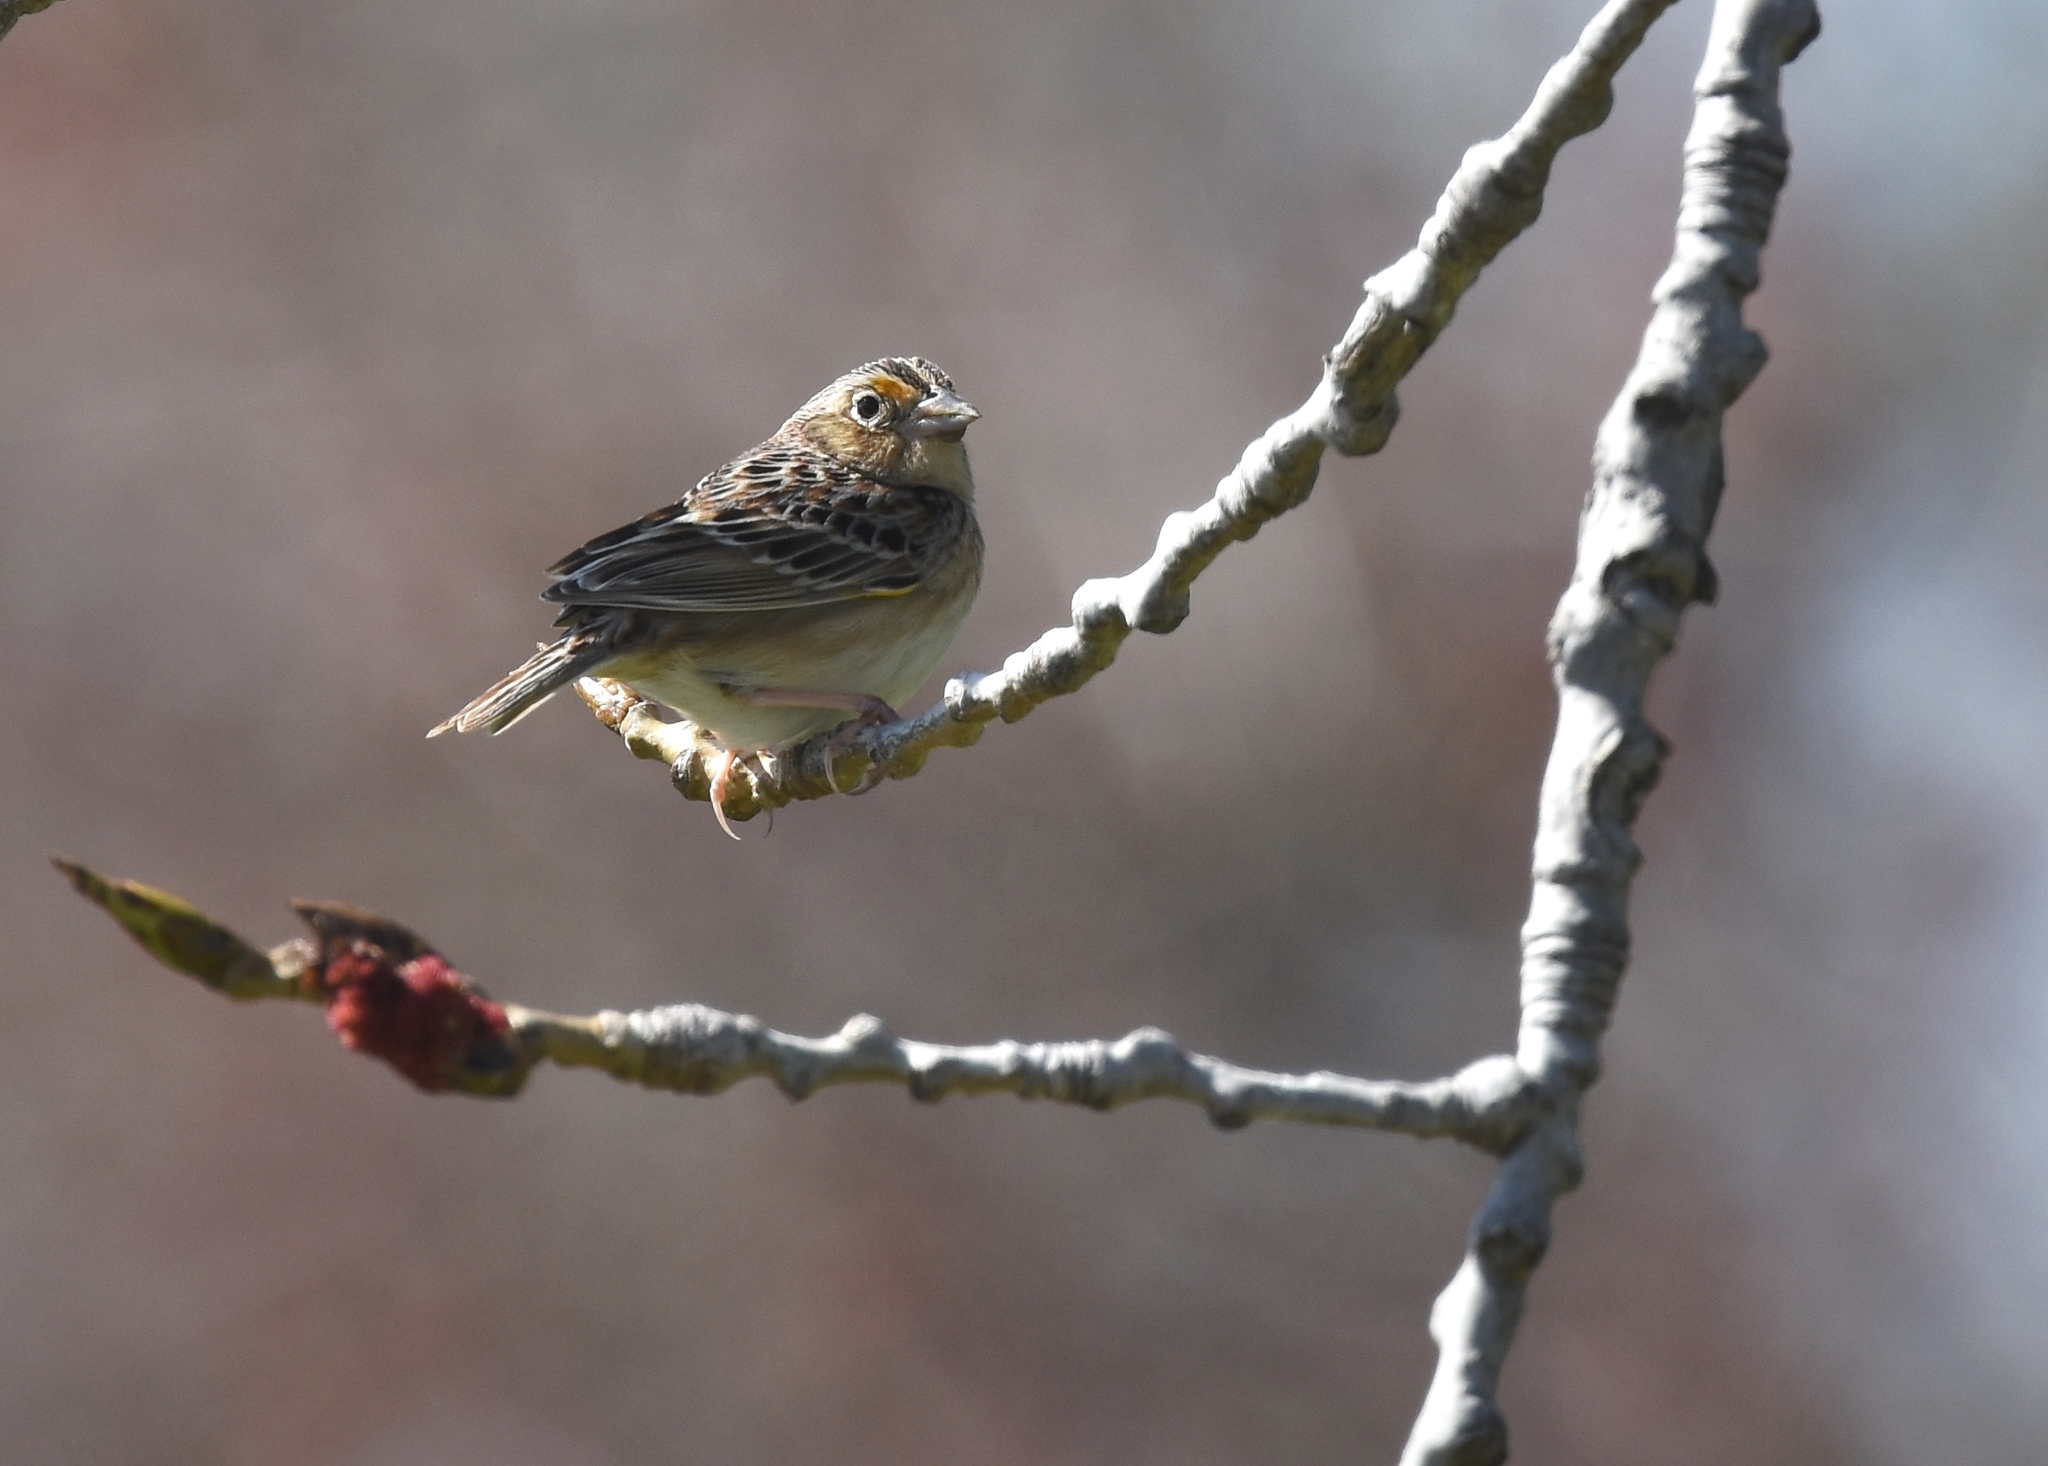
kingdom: Animalia
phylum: Chordata
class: Aves
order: Passeriformes
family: Passerellidae
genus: Ammodramus
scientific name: Ammodramus savannarum
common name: Grasshopper sparrow
